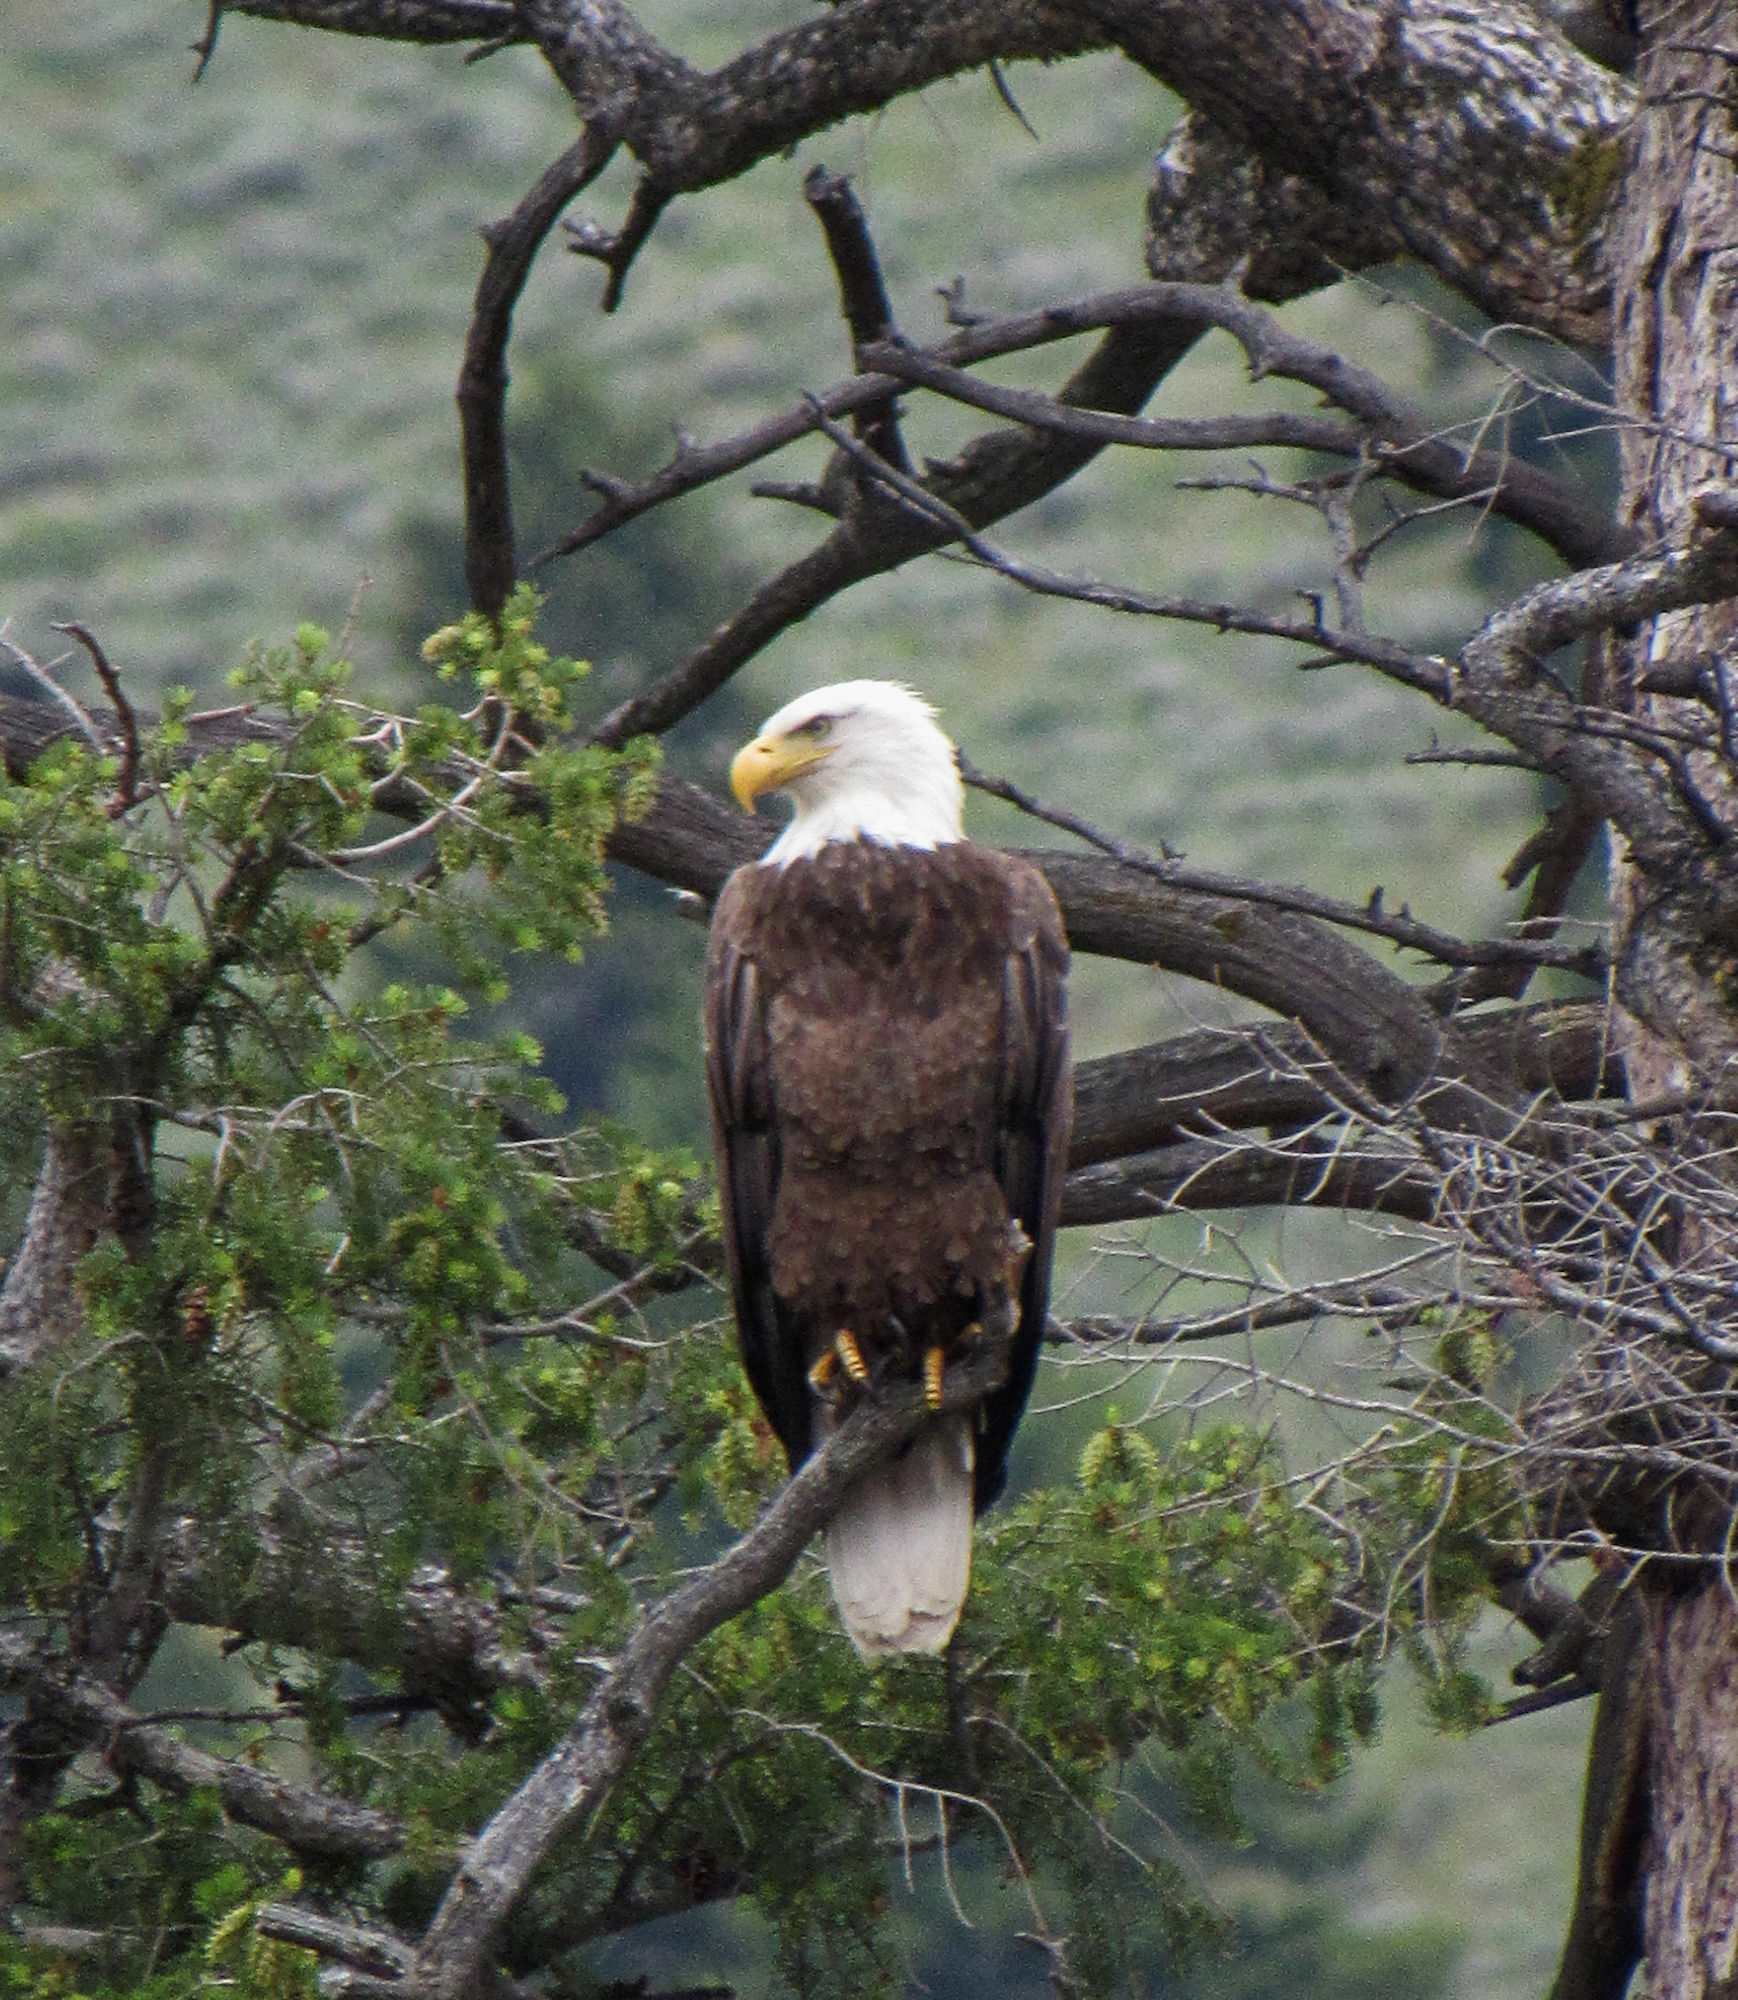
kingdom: Animalia
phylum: Chordata
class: Aves
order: Accipitriformes
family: Accipitridae
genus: Haliaeetus
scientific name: Haliaeetus leucocephalus
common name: Bald eagle
